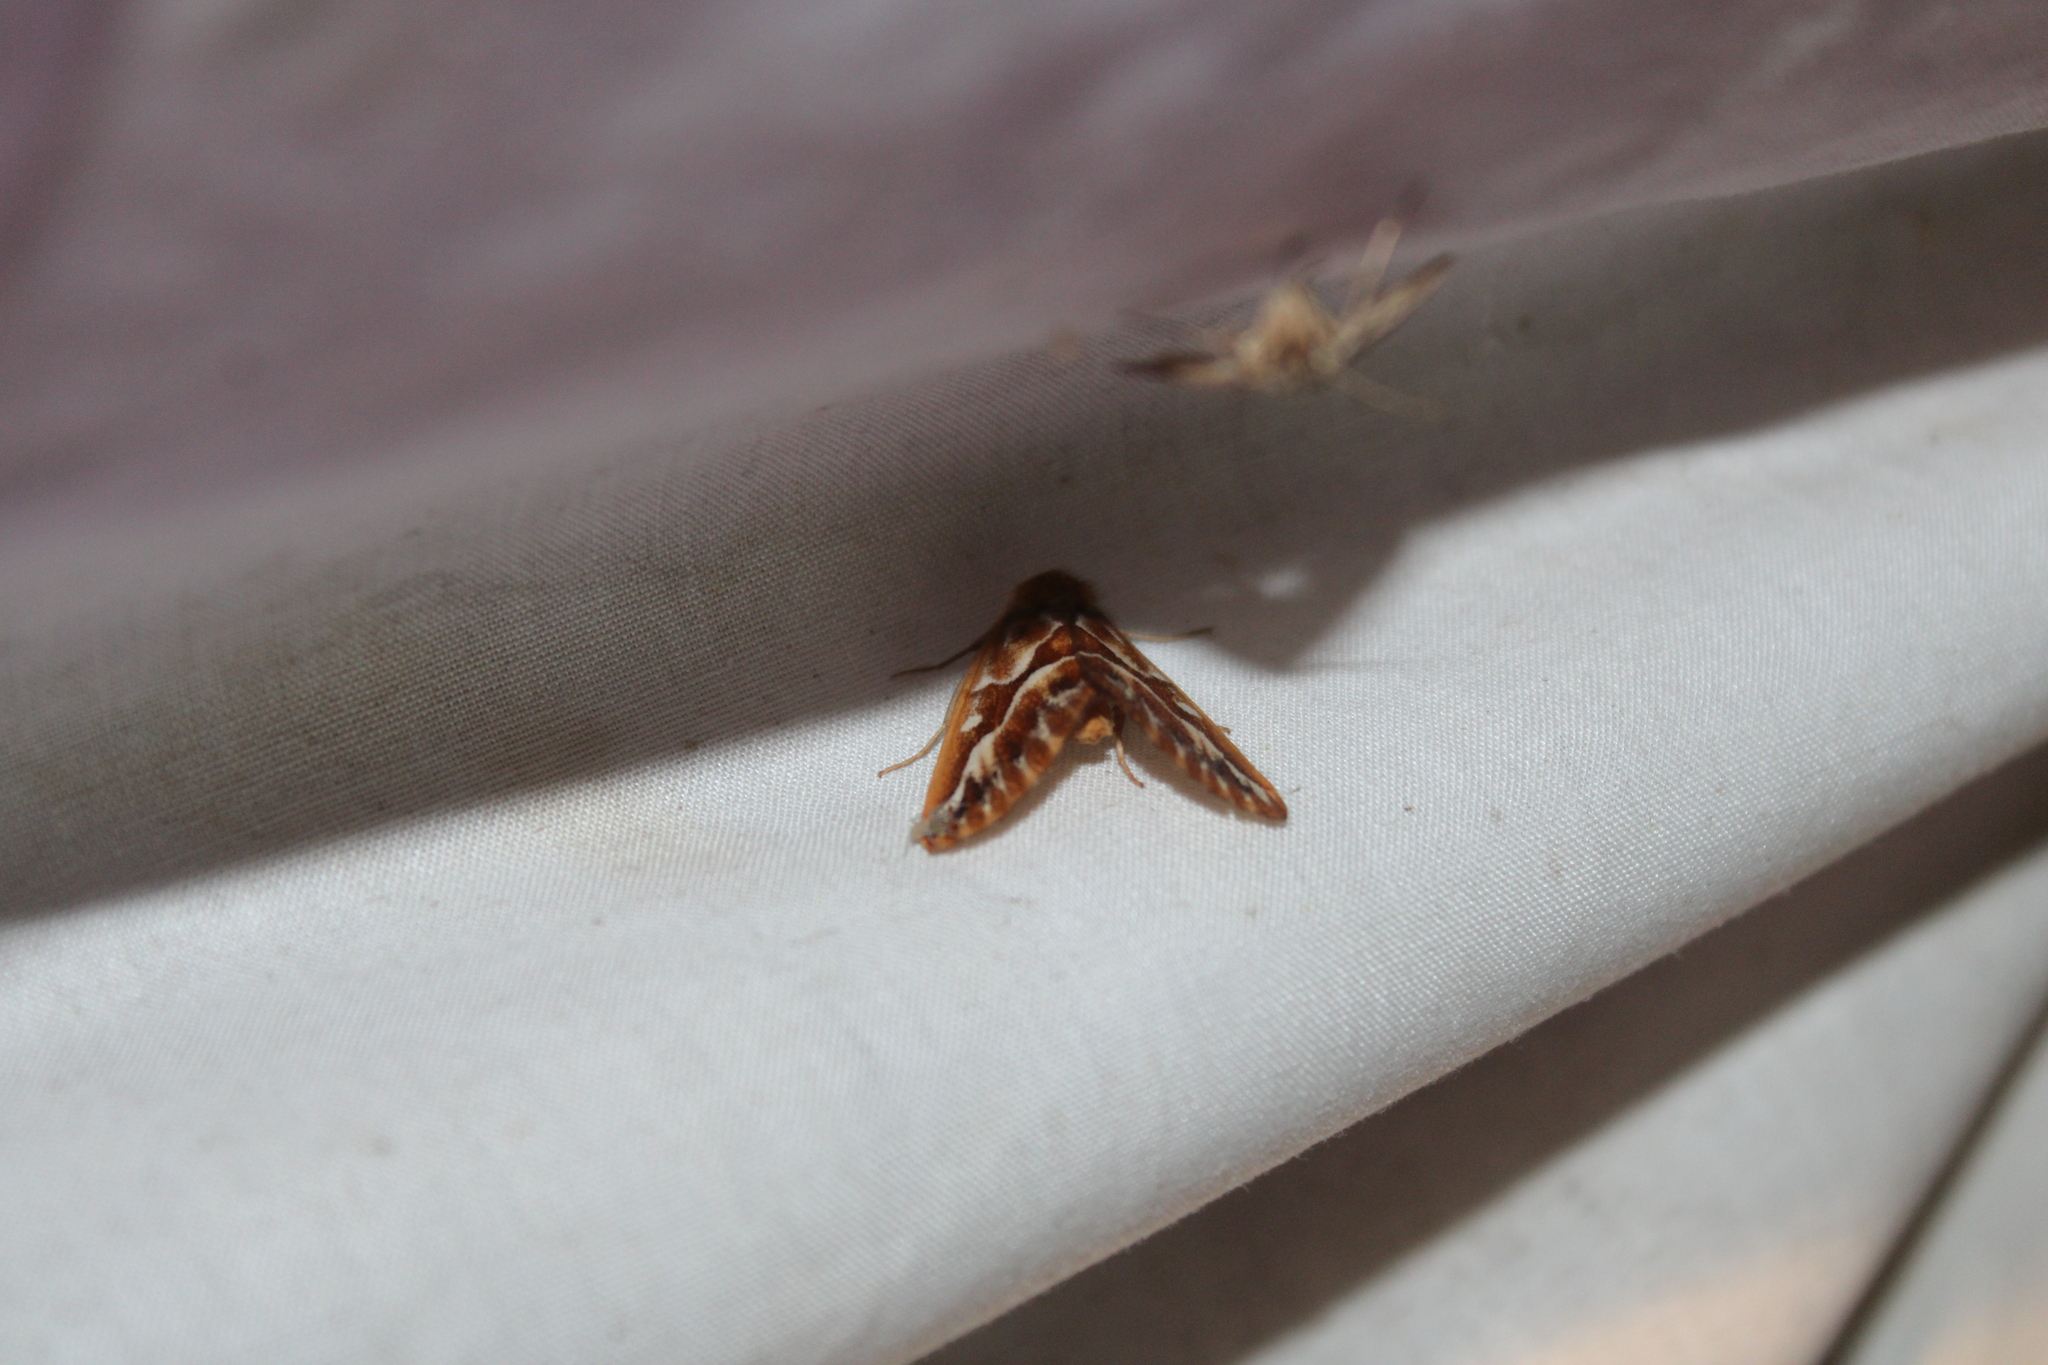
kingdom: Animalia
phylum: Arthropoda
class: Insecta
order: Lepidoptera
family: Geometridae
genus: Caripeta
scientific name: Caripeta piniata
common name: Northern pine looper moth
